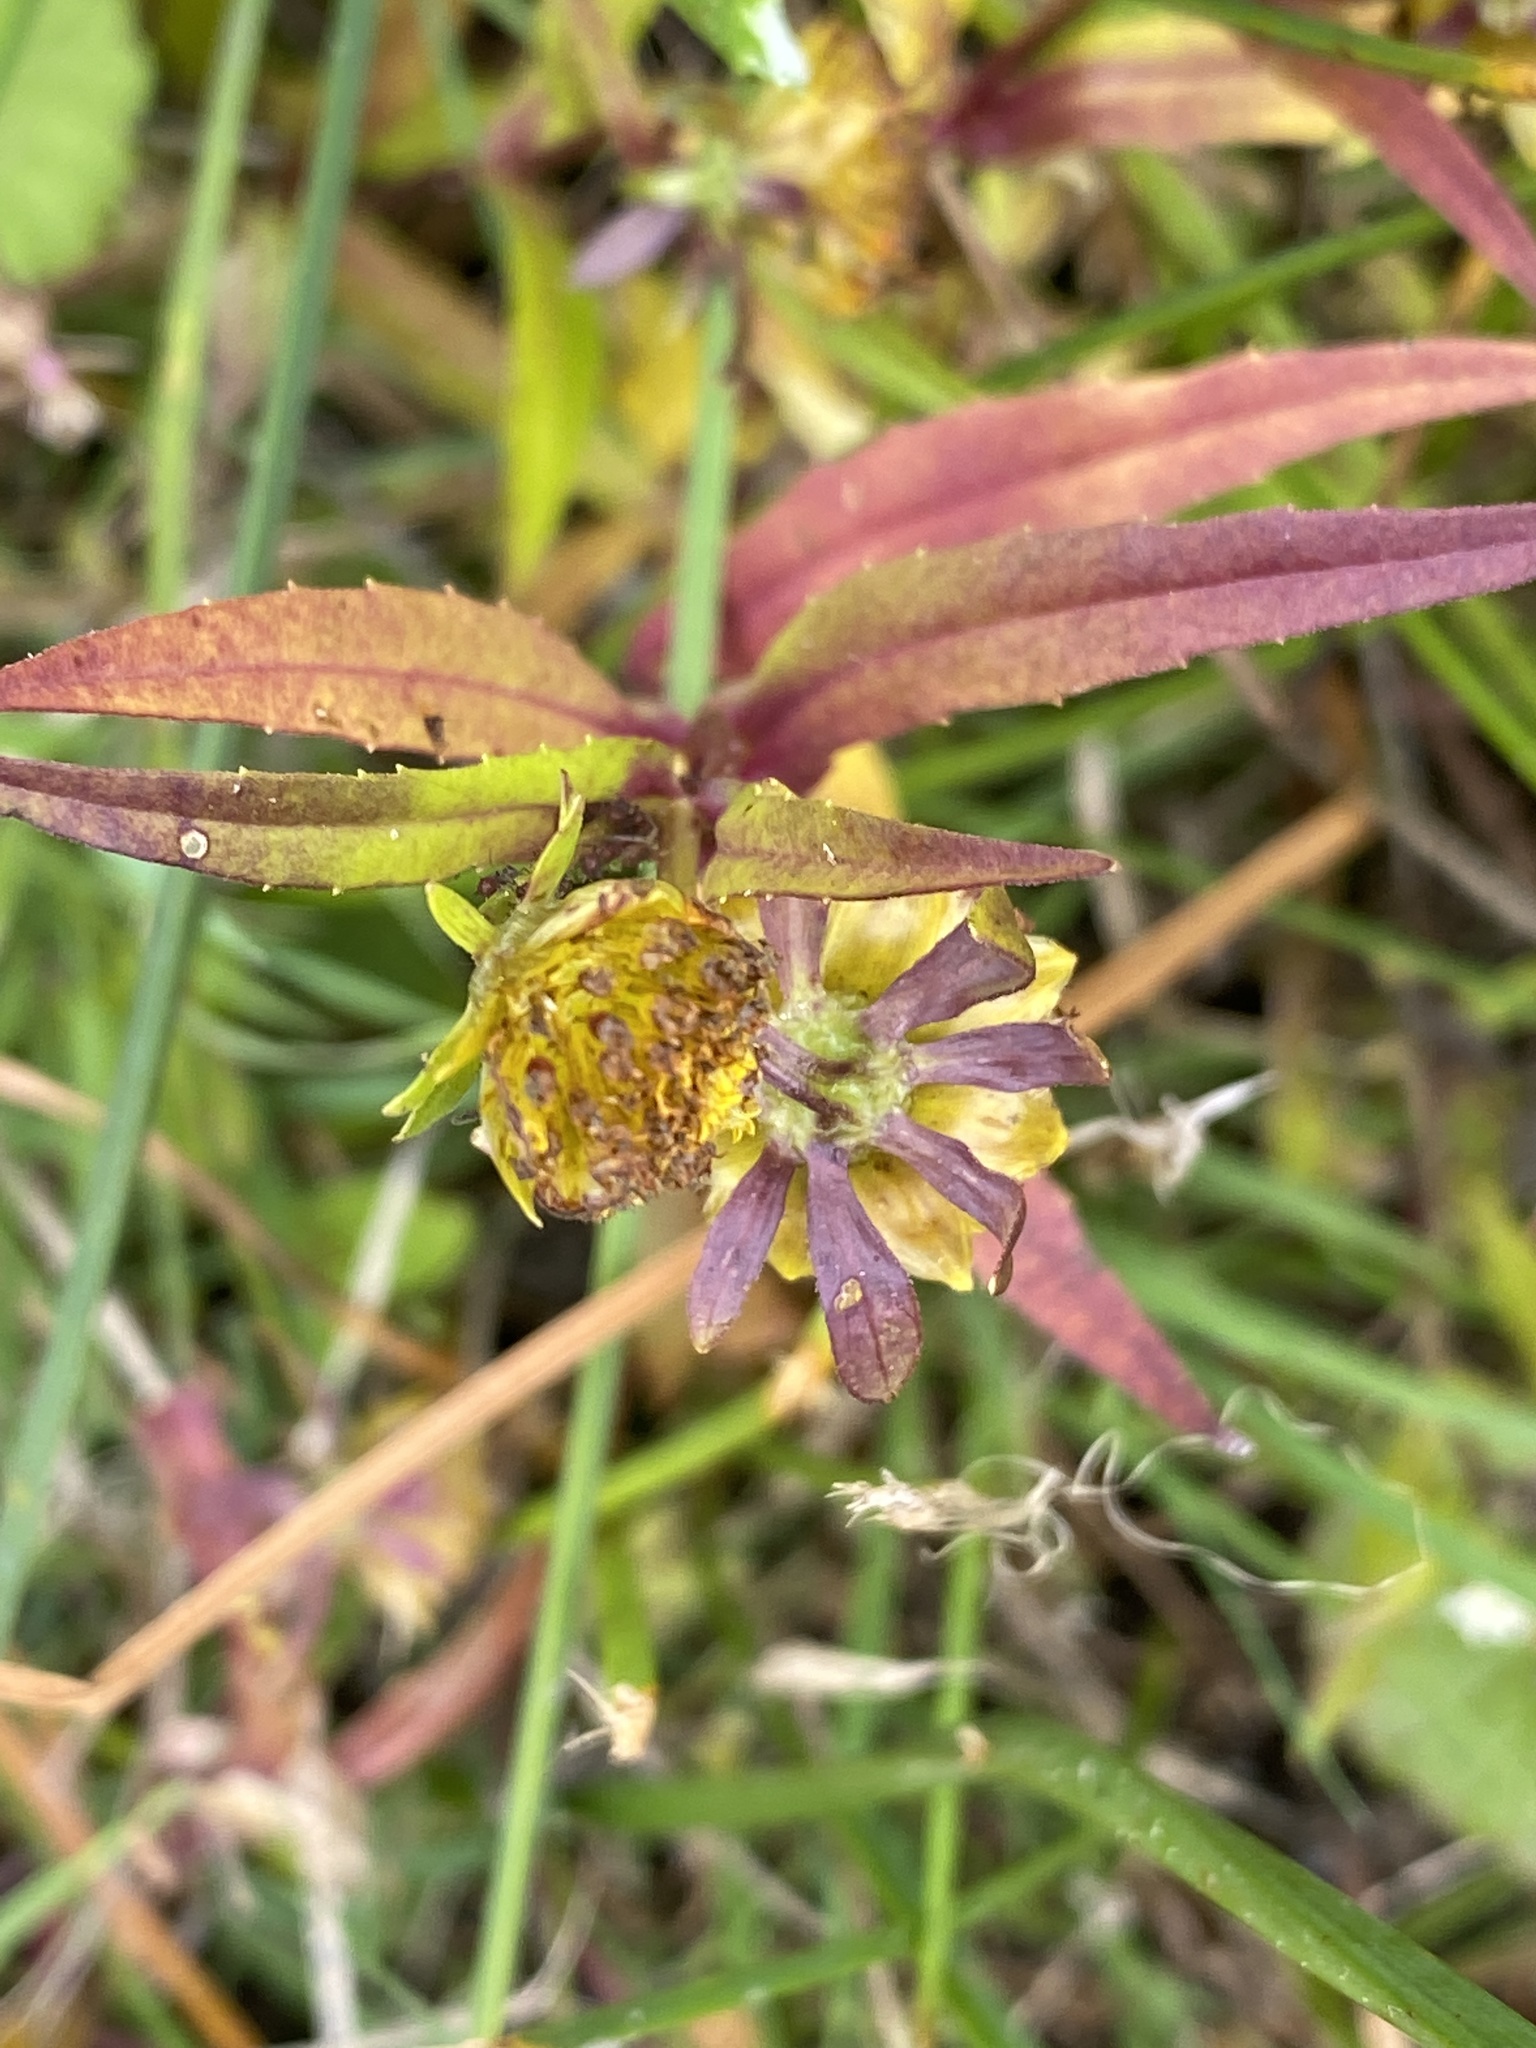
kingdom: Plantae
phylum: Tracheophyta
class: Magnoliopsida
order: Asterales
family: Asteraceae
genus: Bidens
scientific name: Bidens cernua
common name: Nodding bur-marigold
